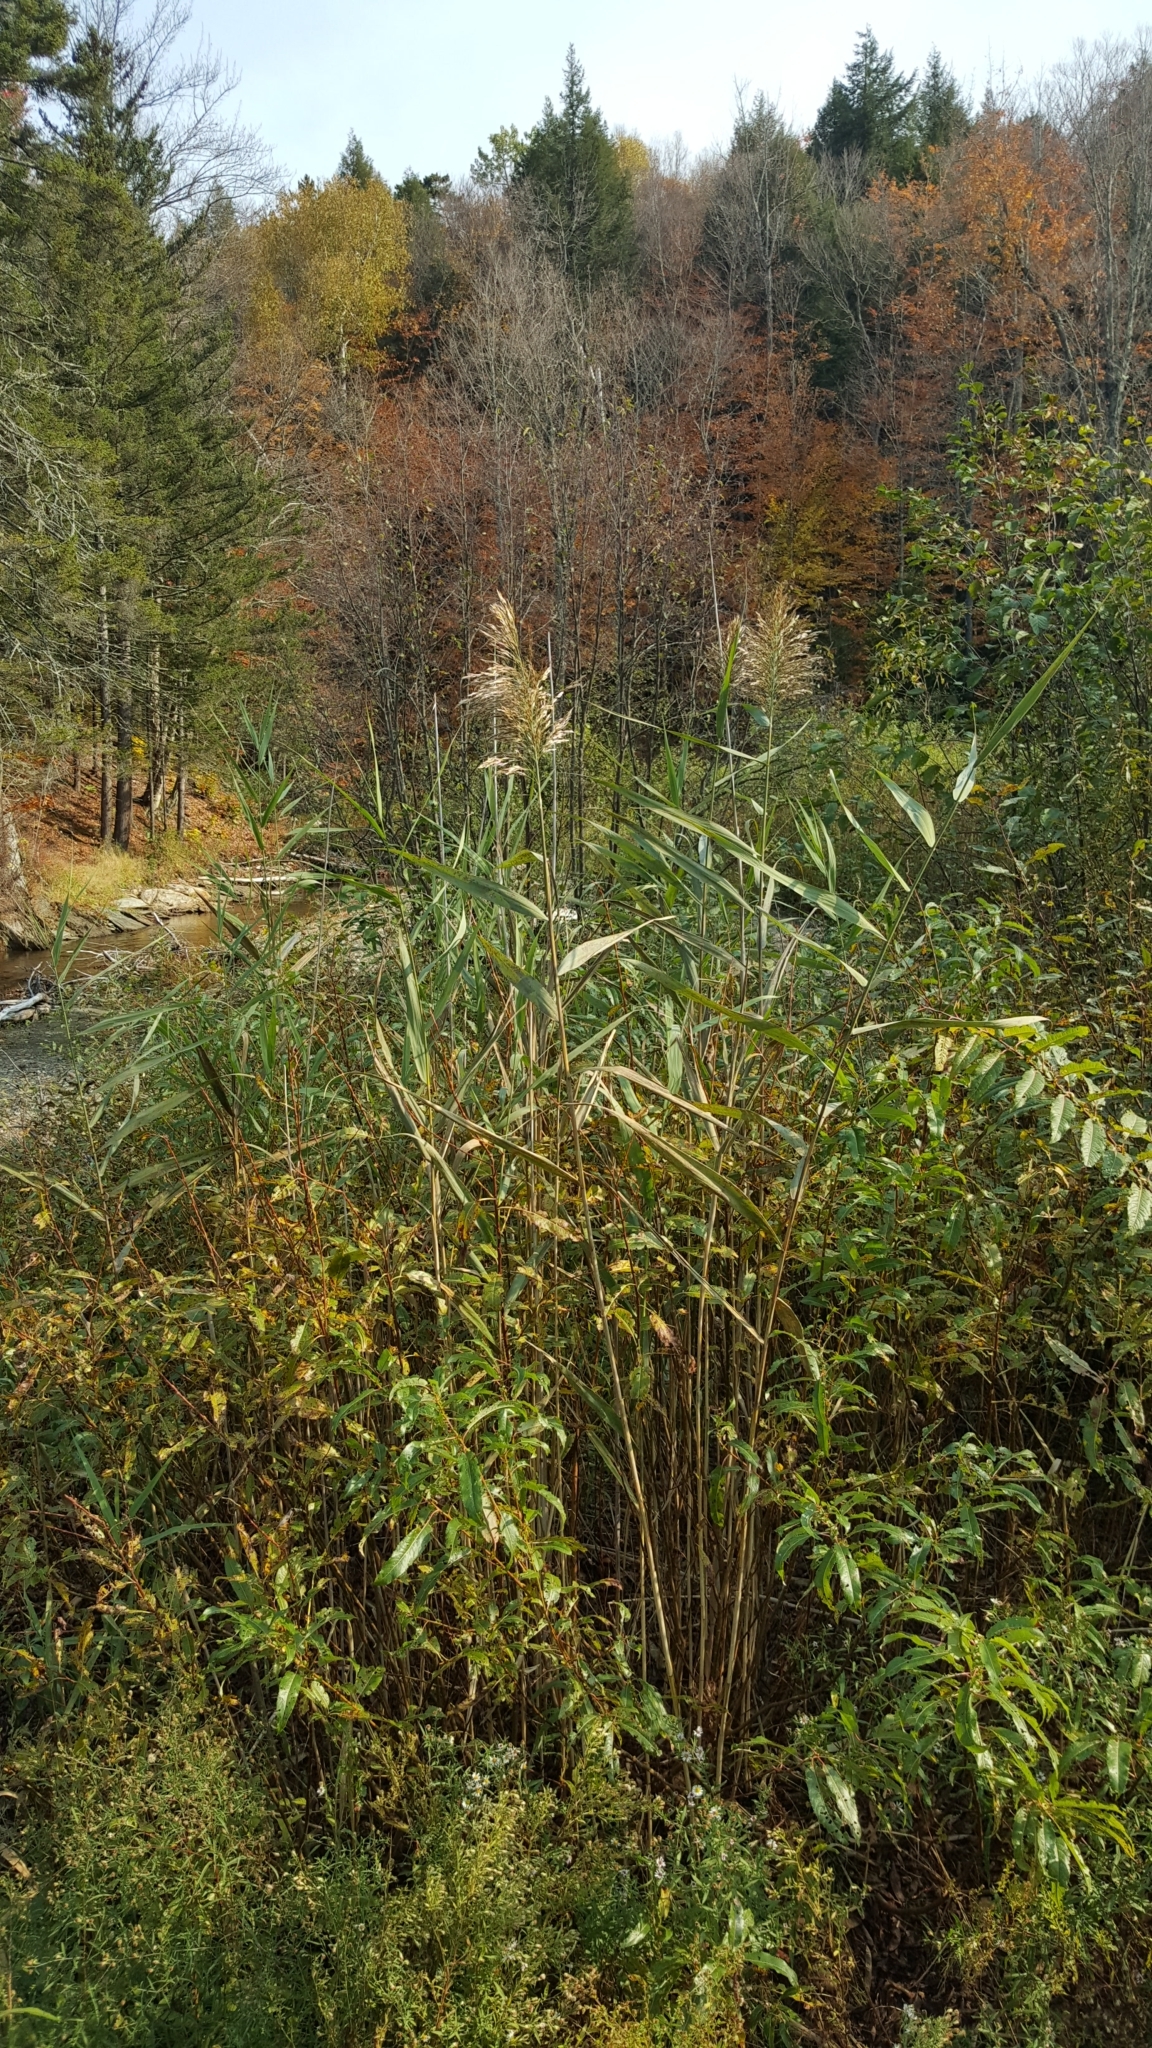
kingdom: Plantae
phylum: Tracheophyta
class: Liliopsida
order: Poales
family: Poaceae
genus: Phragmites
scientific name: Phragmites australis
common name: Common reed
